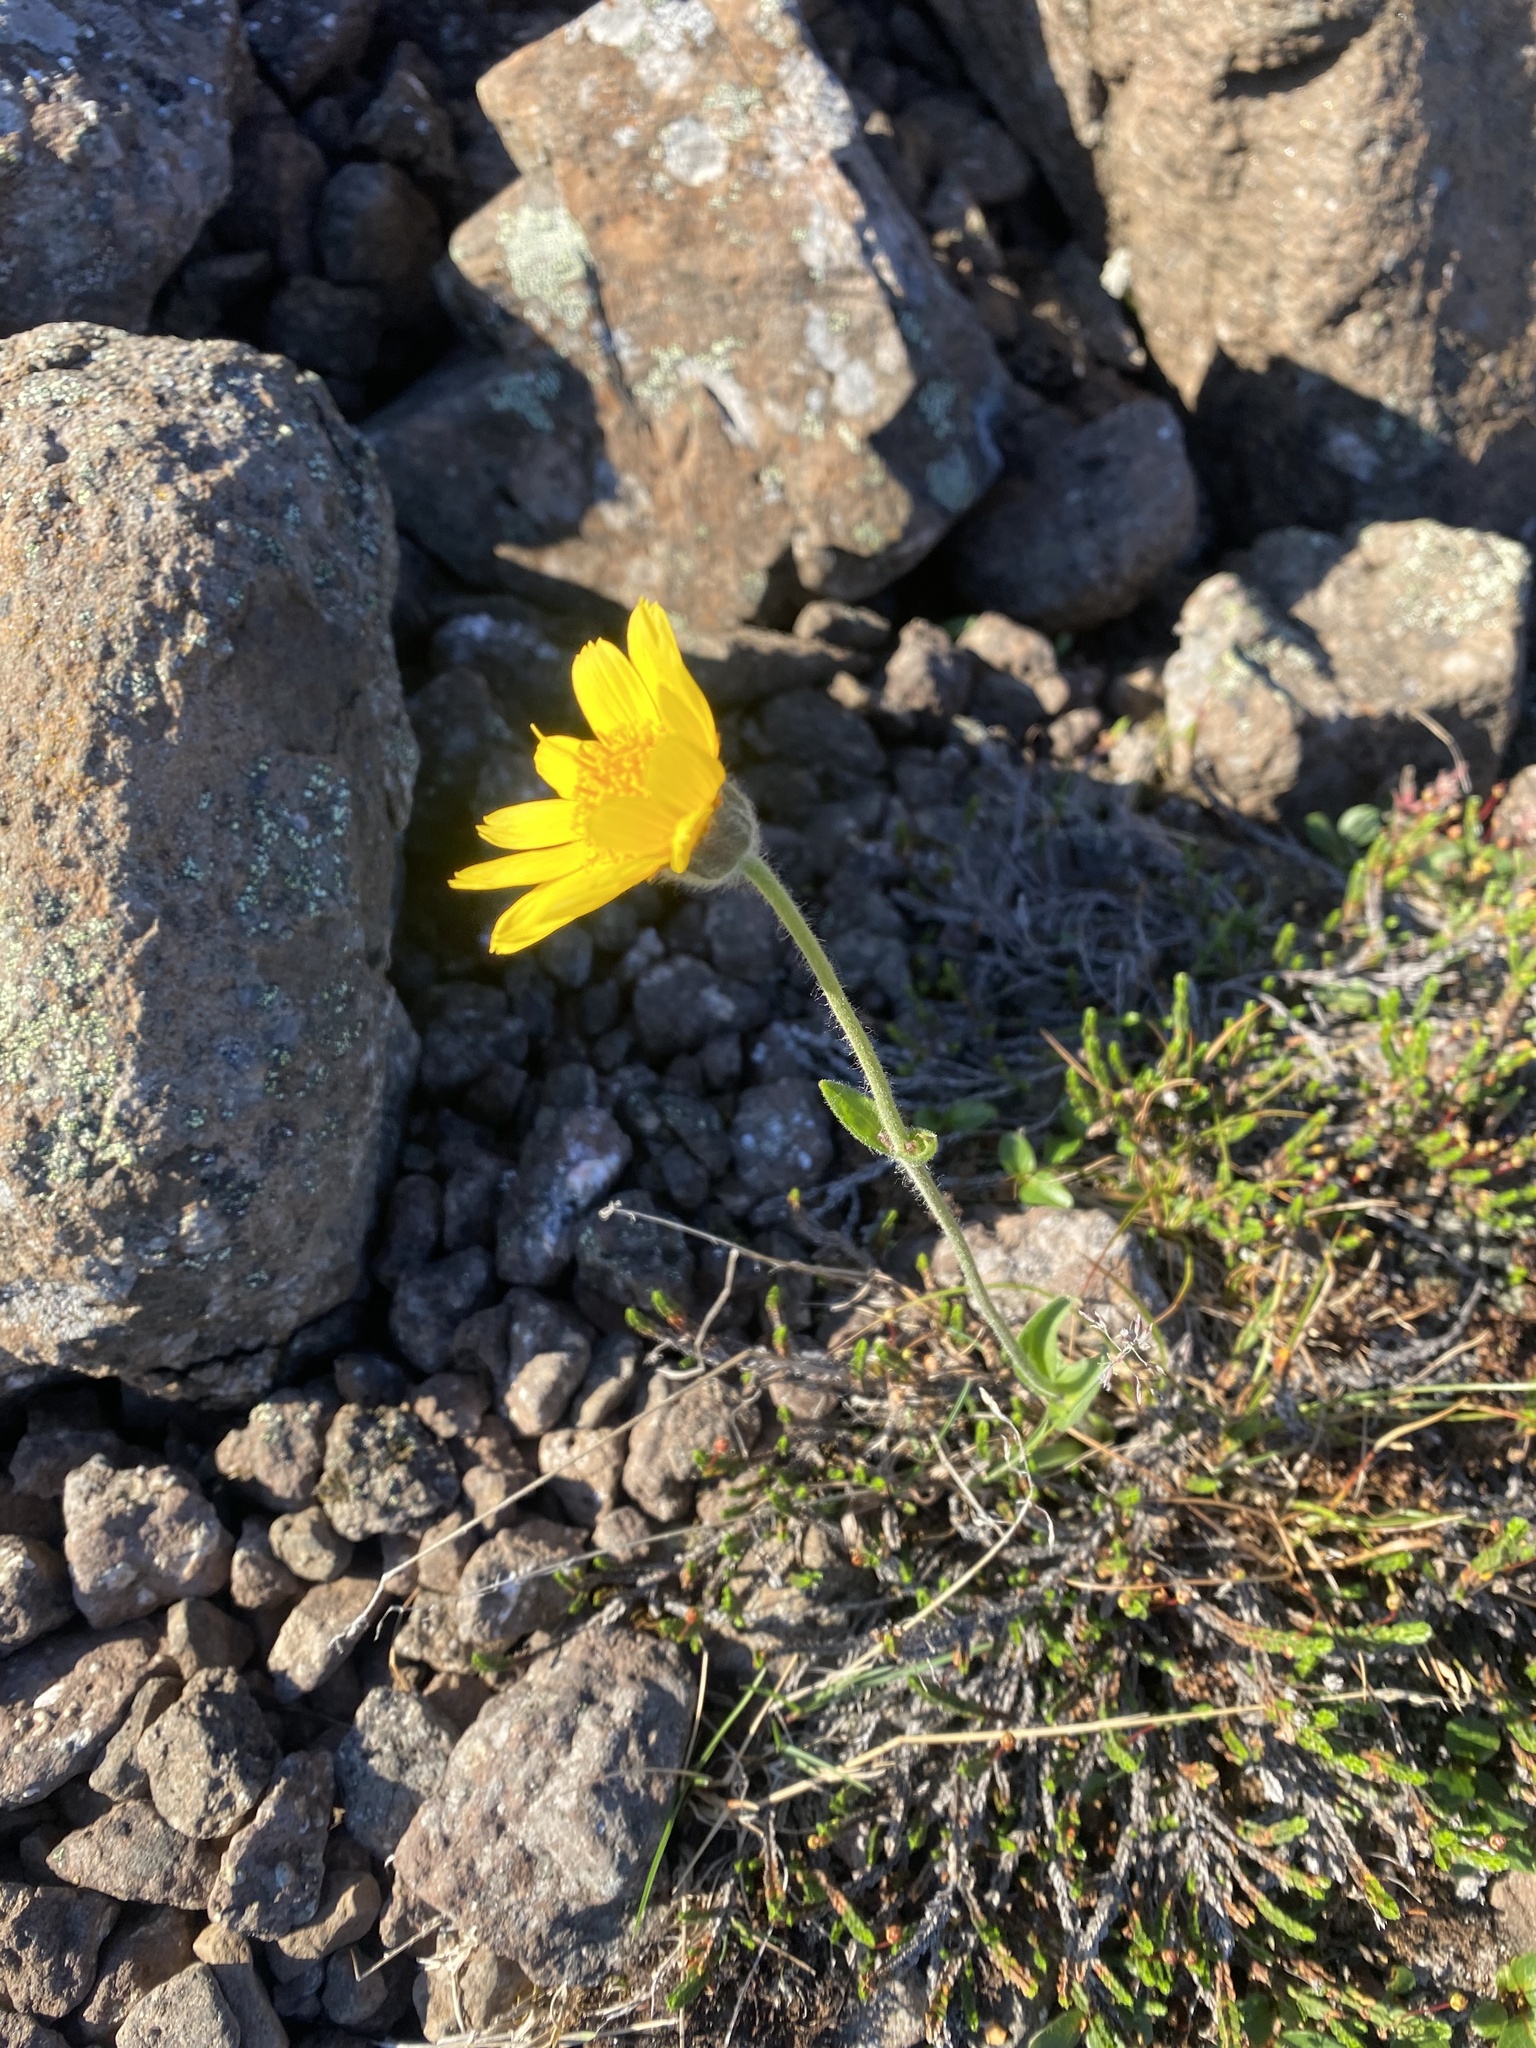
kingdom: Plantae
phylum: Tracheophyta
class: Magnoliopsida
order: Asterales
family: Asteraceae
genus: Arnica
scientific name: Arnica angustifolia
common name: Arctic arnica
